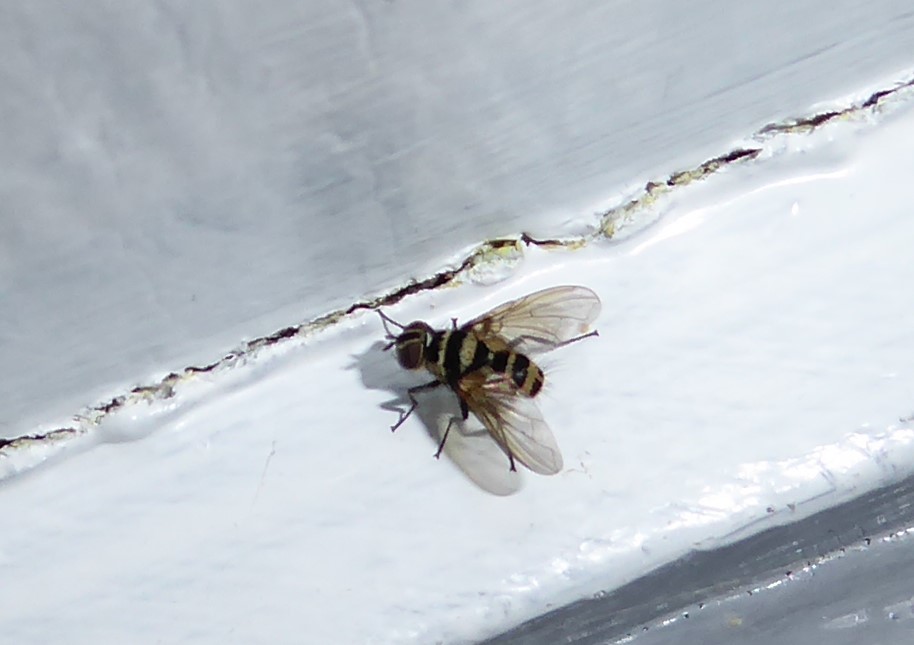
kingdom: Animalia
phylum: Arthropoda
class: Insecta
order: Diptera
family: Tachinidae
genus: Trigonospila
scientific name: Trigonospila brevifacies
